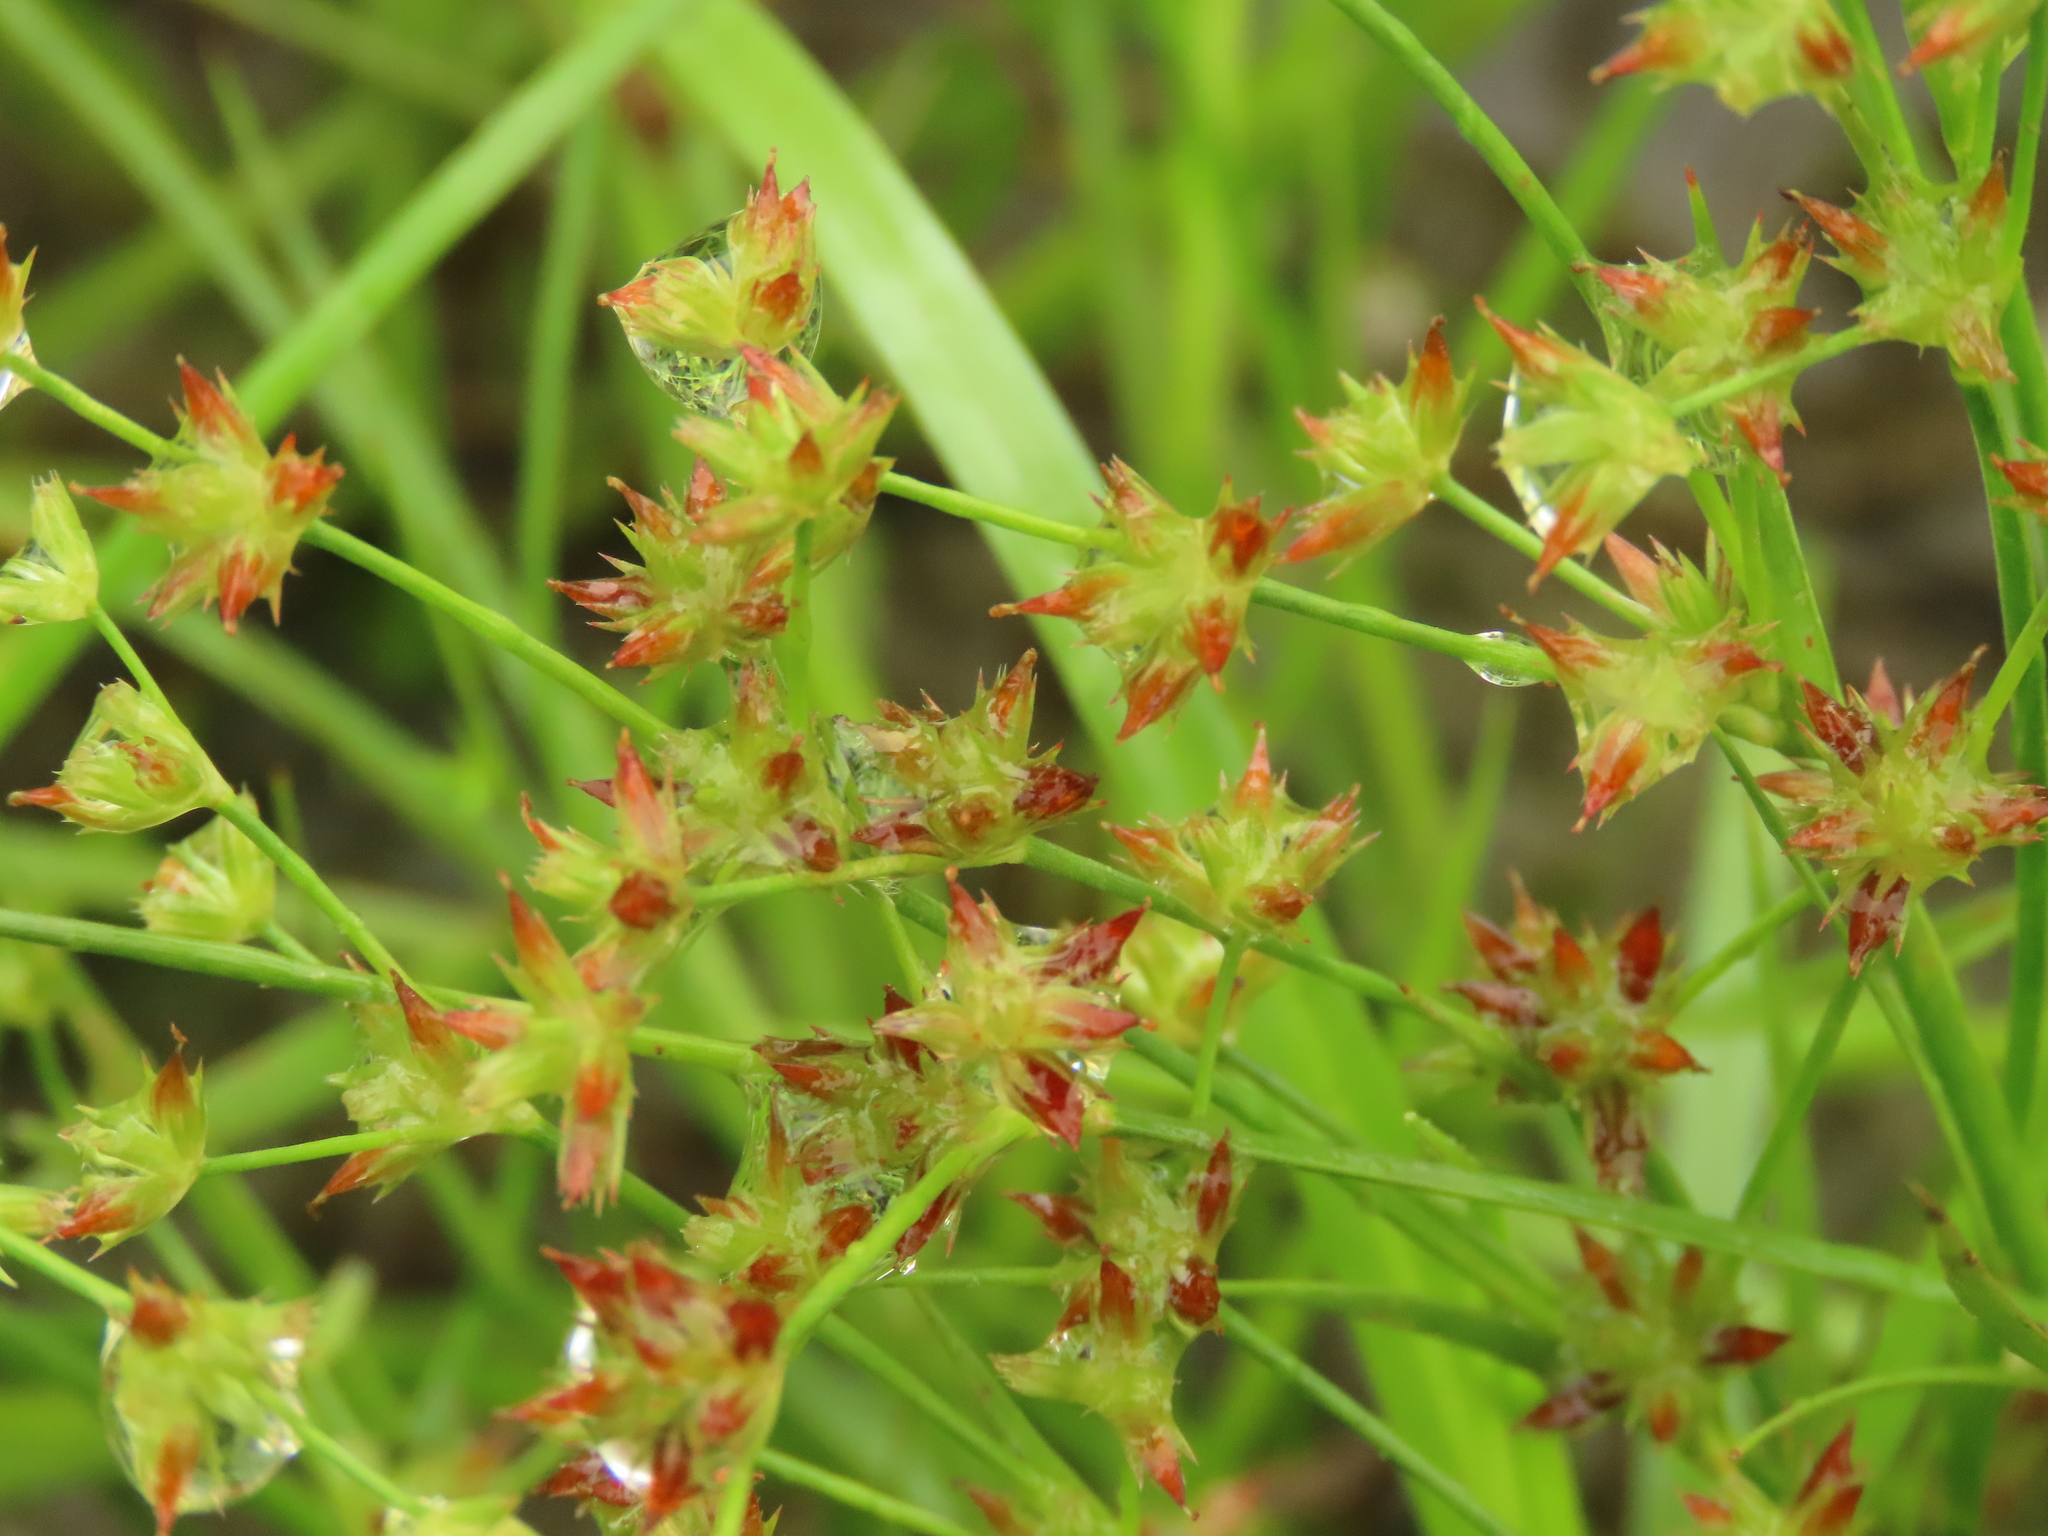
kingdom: Plantae
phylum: Tracheophyta
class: Liliopsida
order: Poales
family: Juncaceae
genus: Juncus
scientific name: Juncus prismatocarpus
